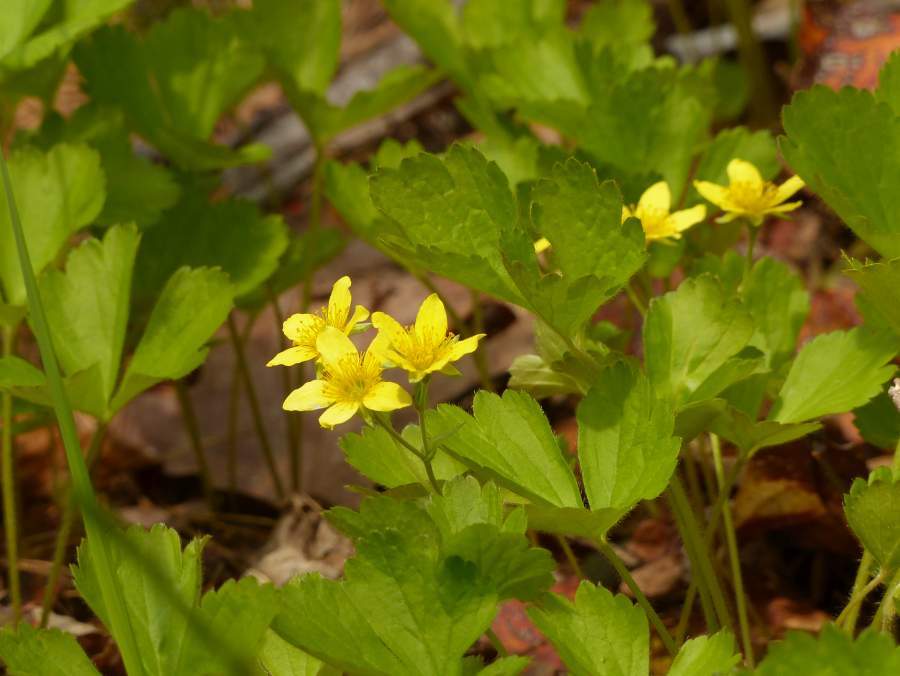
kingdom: Plantae
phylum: Tracheophyta
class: Magnoliopsida
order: Rosales
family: Rosaceae
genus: Geum
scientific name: Geum fragarioides
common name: Appalachian barren strawberry
